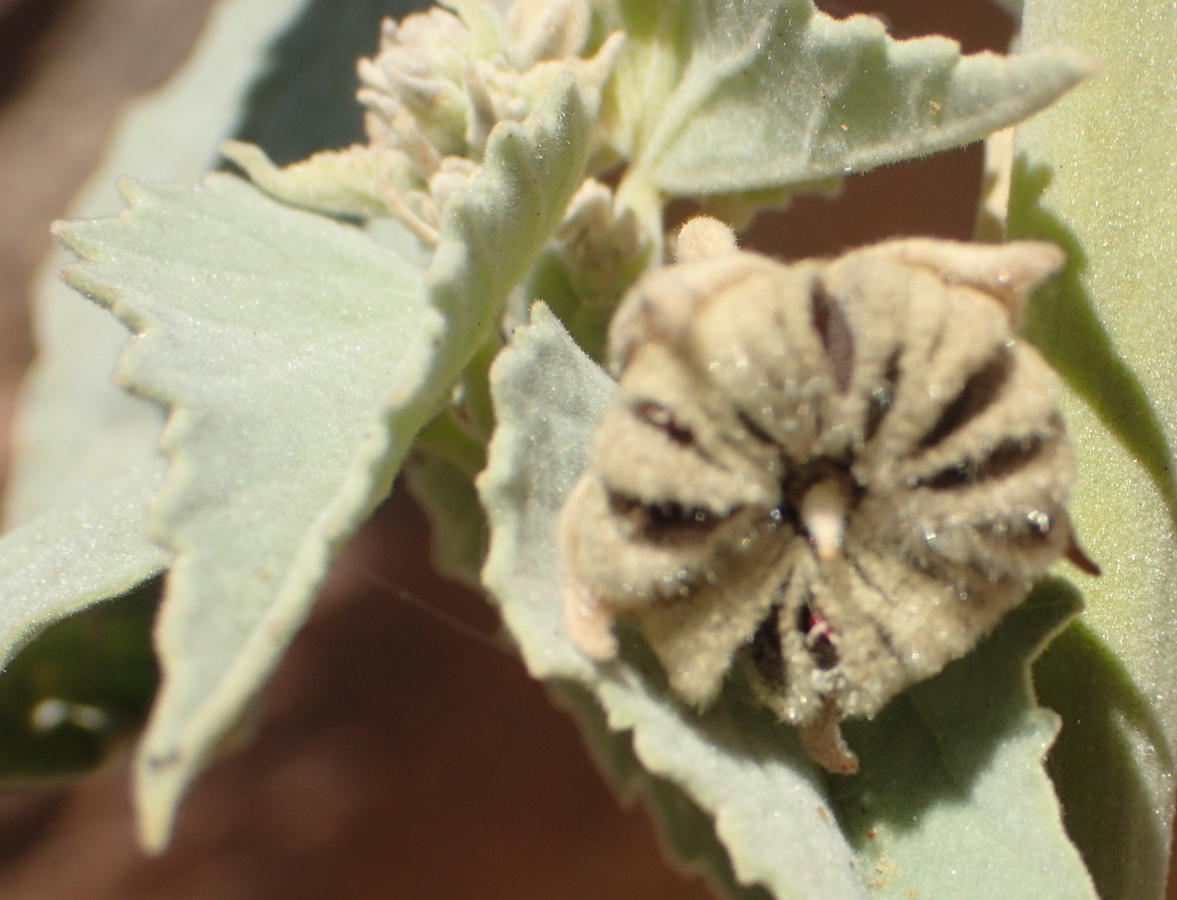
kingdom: Plantae
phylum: Tracheophyta
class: Magnoliopsida
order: Malvales
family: Malvaceae
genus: Abutilon
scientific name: Abutilon pycnodon
